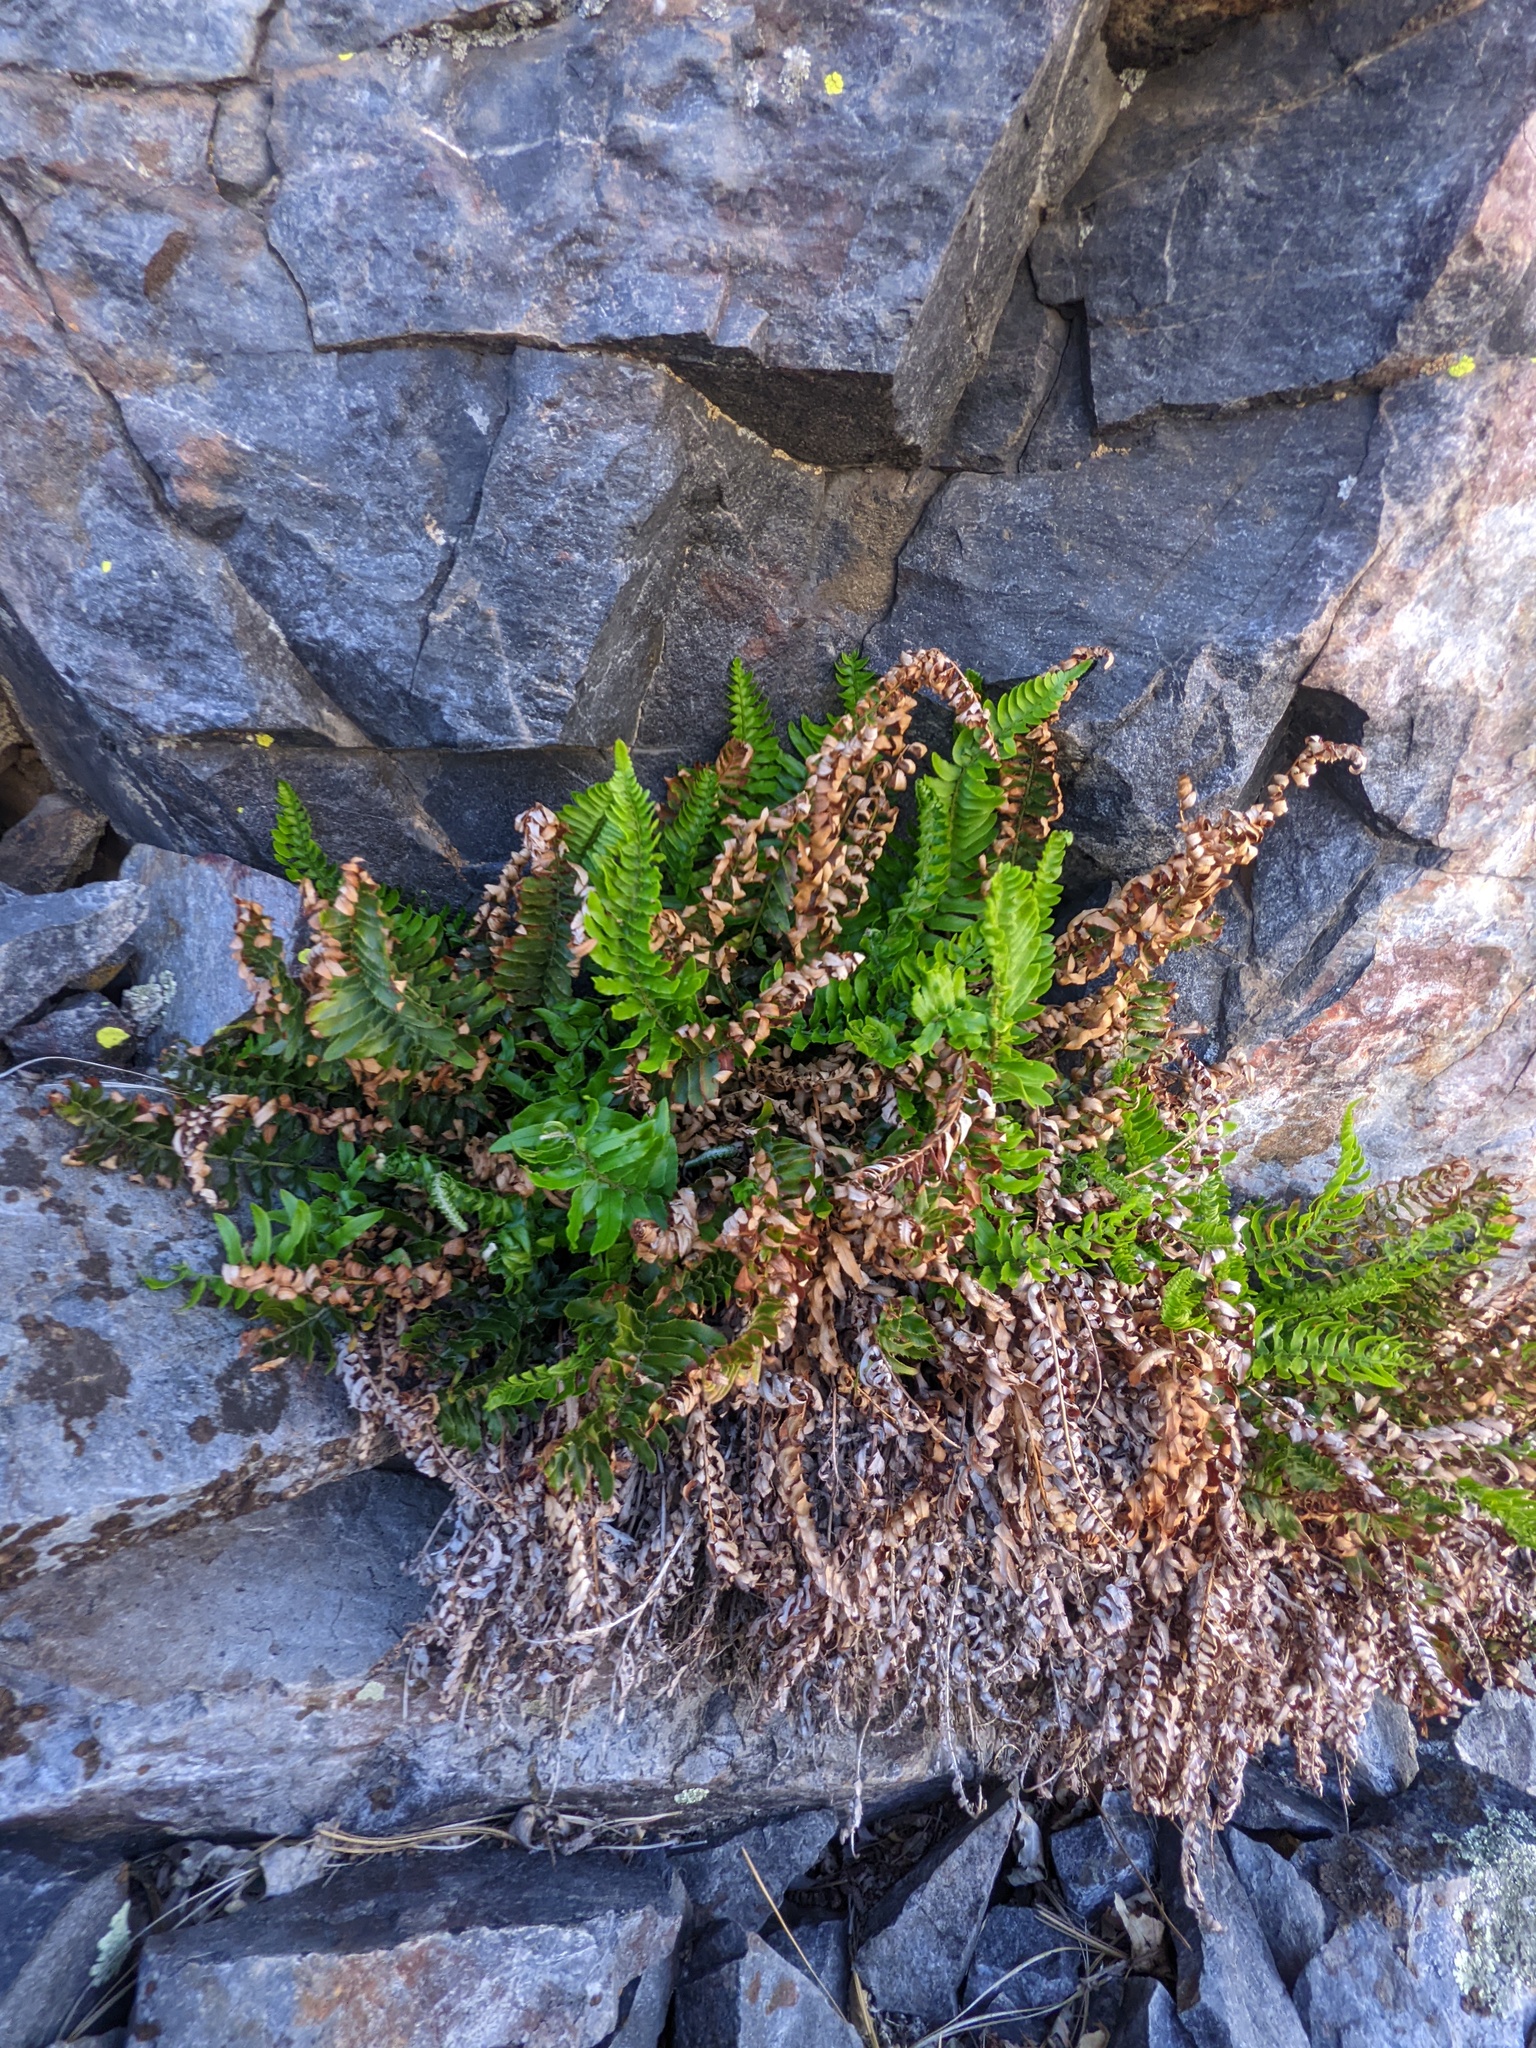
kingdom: Plantae
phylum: Tracheophyta
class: Polypodiopsida
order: Polypodiales
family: Dryopteridaceae
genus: Polystichum
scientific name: Polystichum imbricans
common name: Dwarf western sword fern
